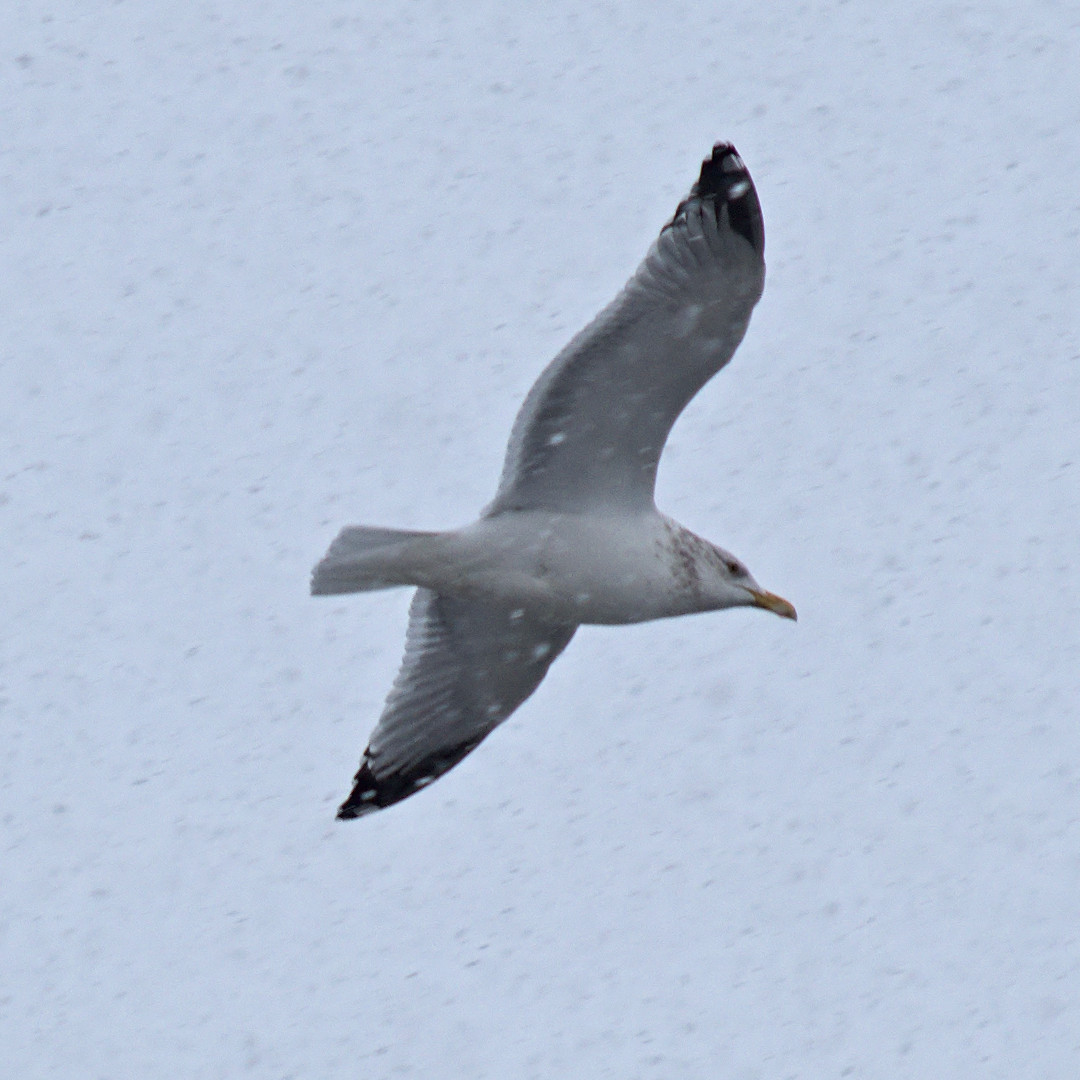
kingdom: Animalia
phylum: Chordata
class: Aves
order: Charadriiformes
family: Laridae
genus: Larus
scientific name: Larus argentatus
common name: Herring gull
